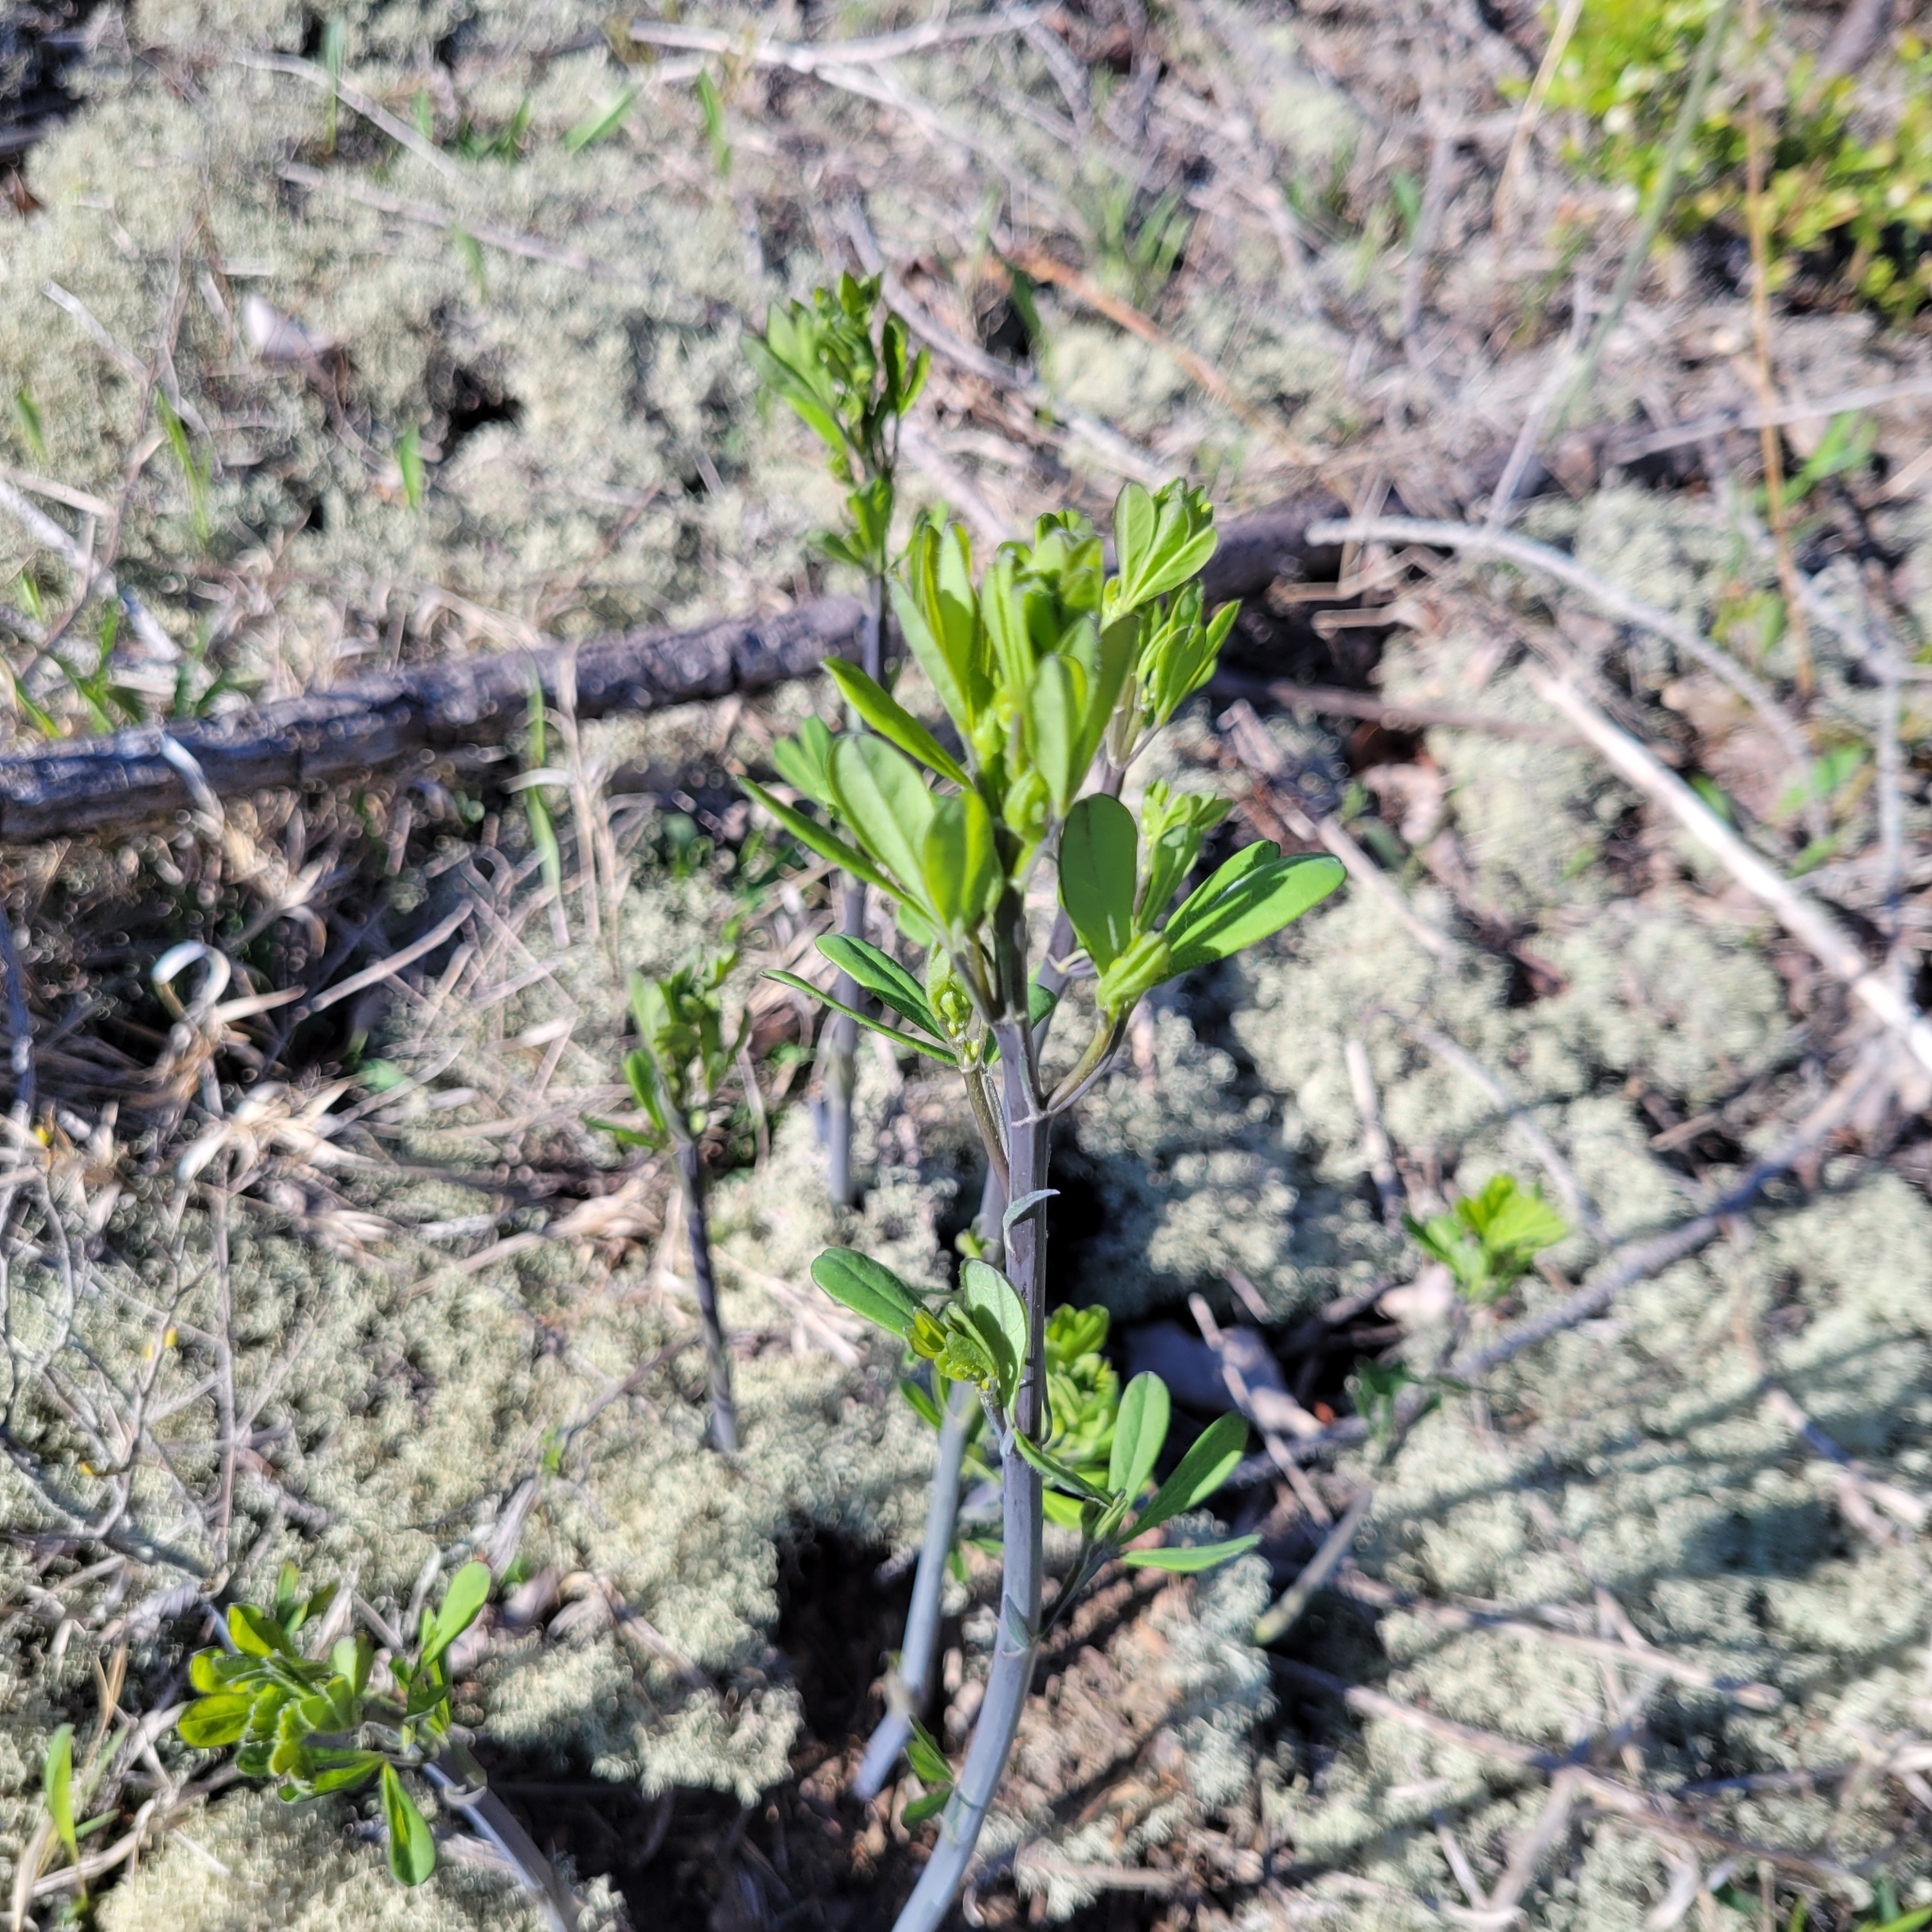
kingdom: Plantae
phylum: Tracheophyta
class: Magnoliopsida
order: Fabales
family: Fabaceae
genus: Baptisia
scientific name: Baptisia tinctoria
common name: Wild indigo
